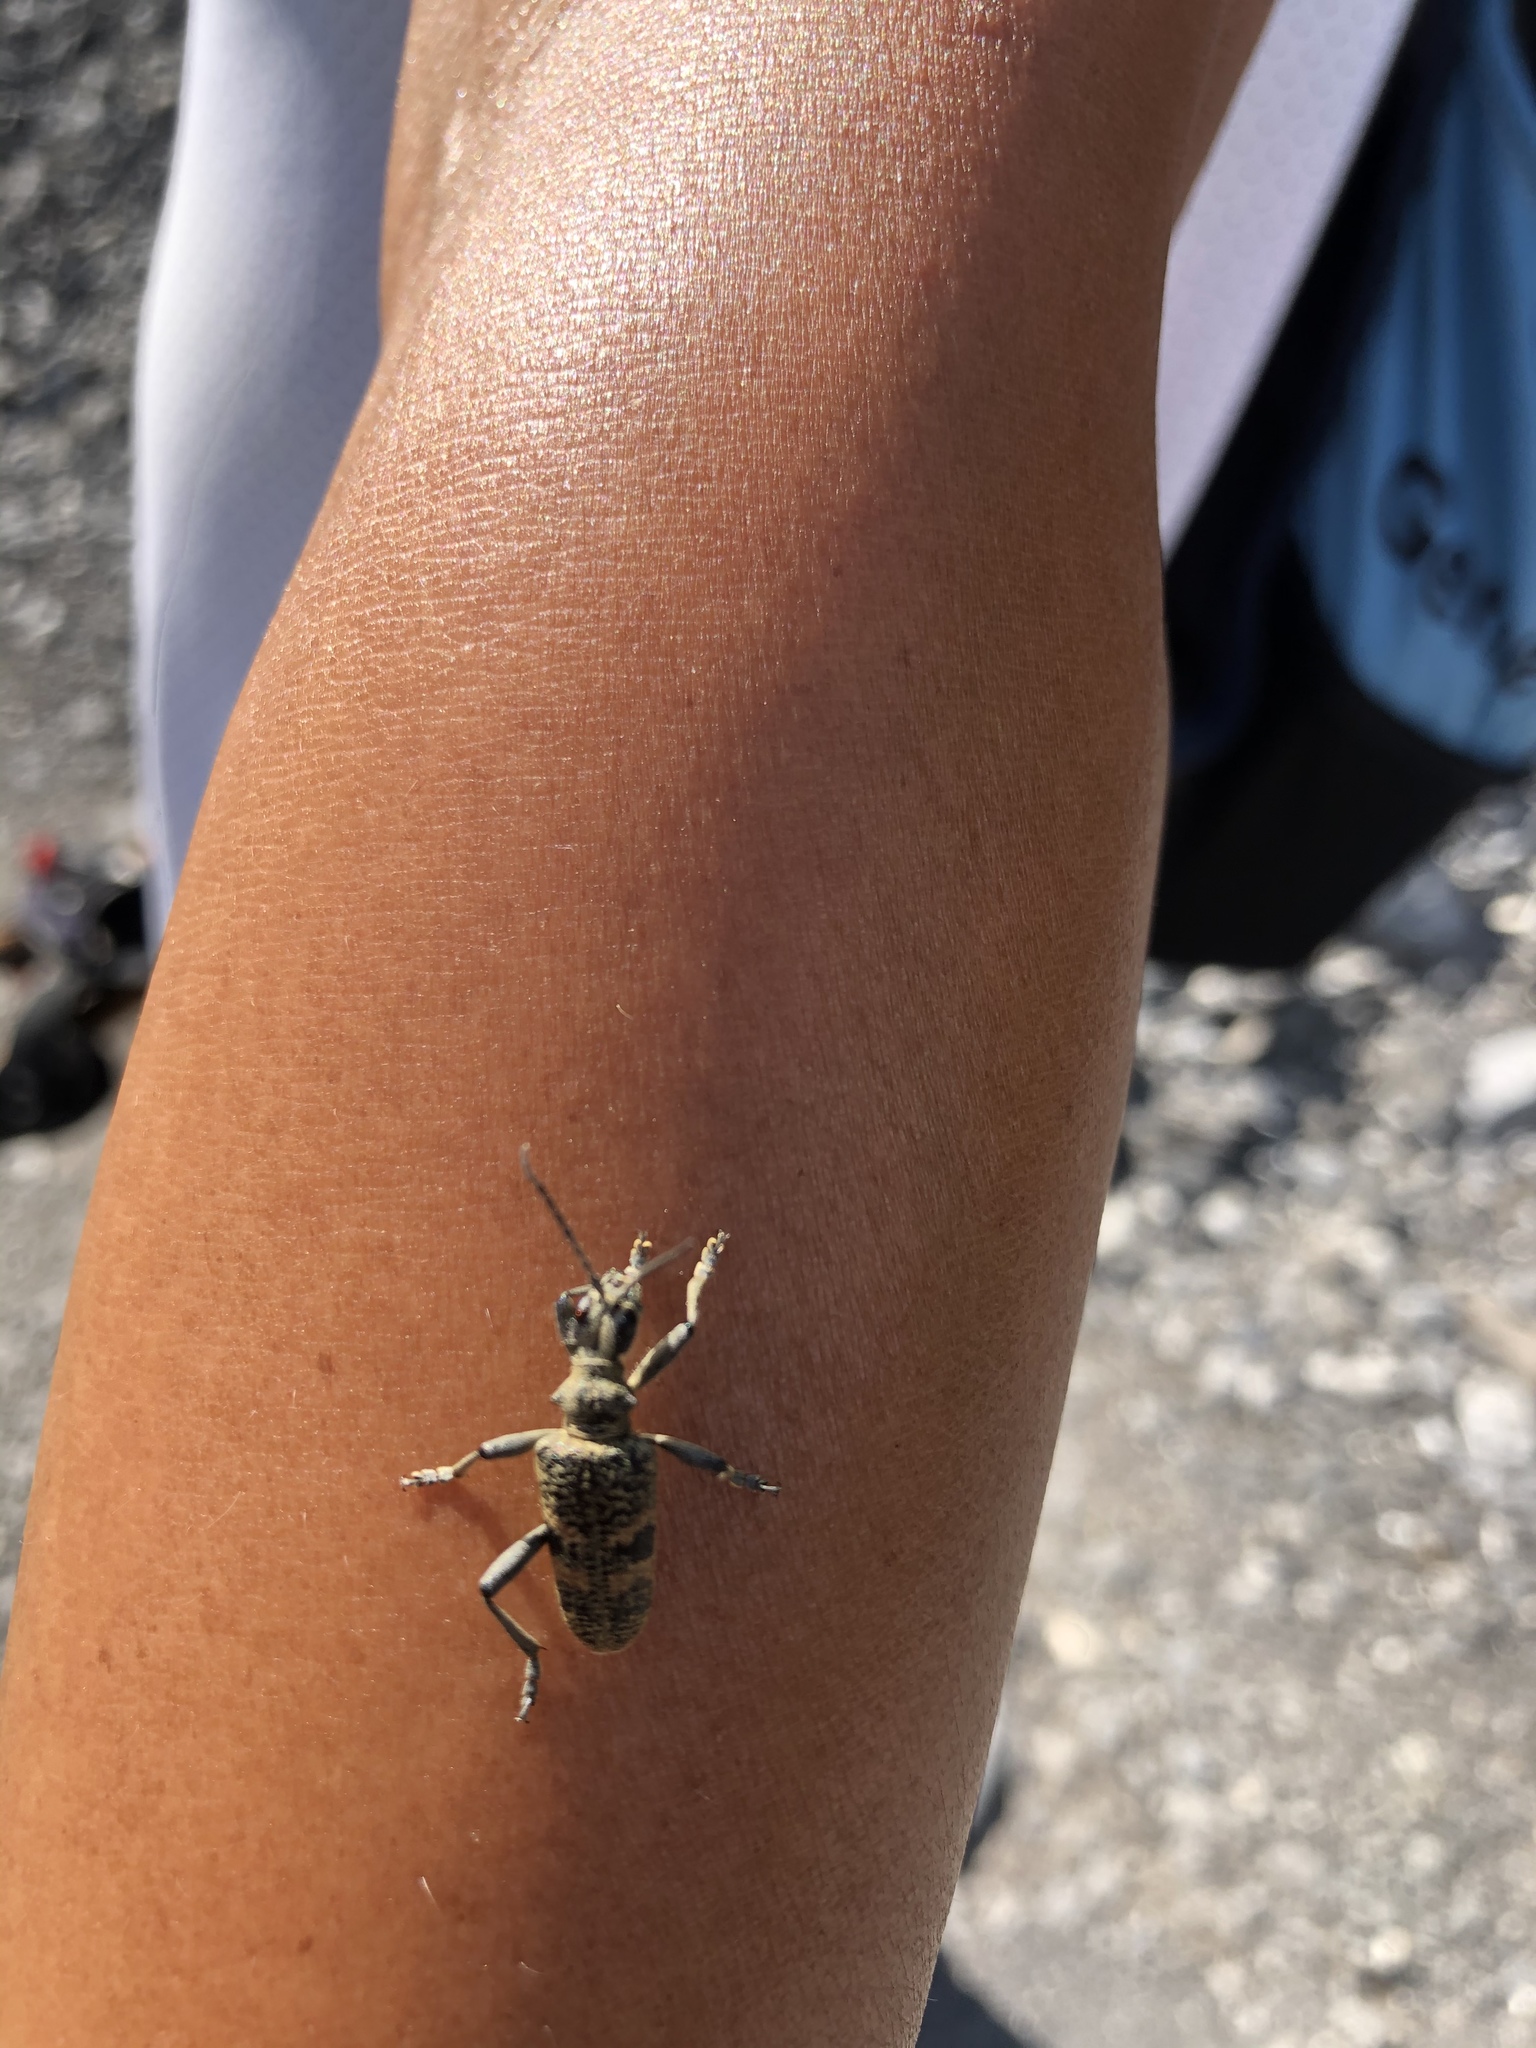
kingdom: Animalia
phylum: Arthropoda
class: Insecta
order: Coleoptera
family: Cerambycidae
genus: Rhagium
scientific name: Rhagium mordax
